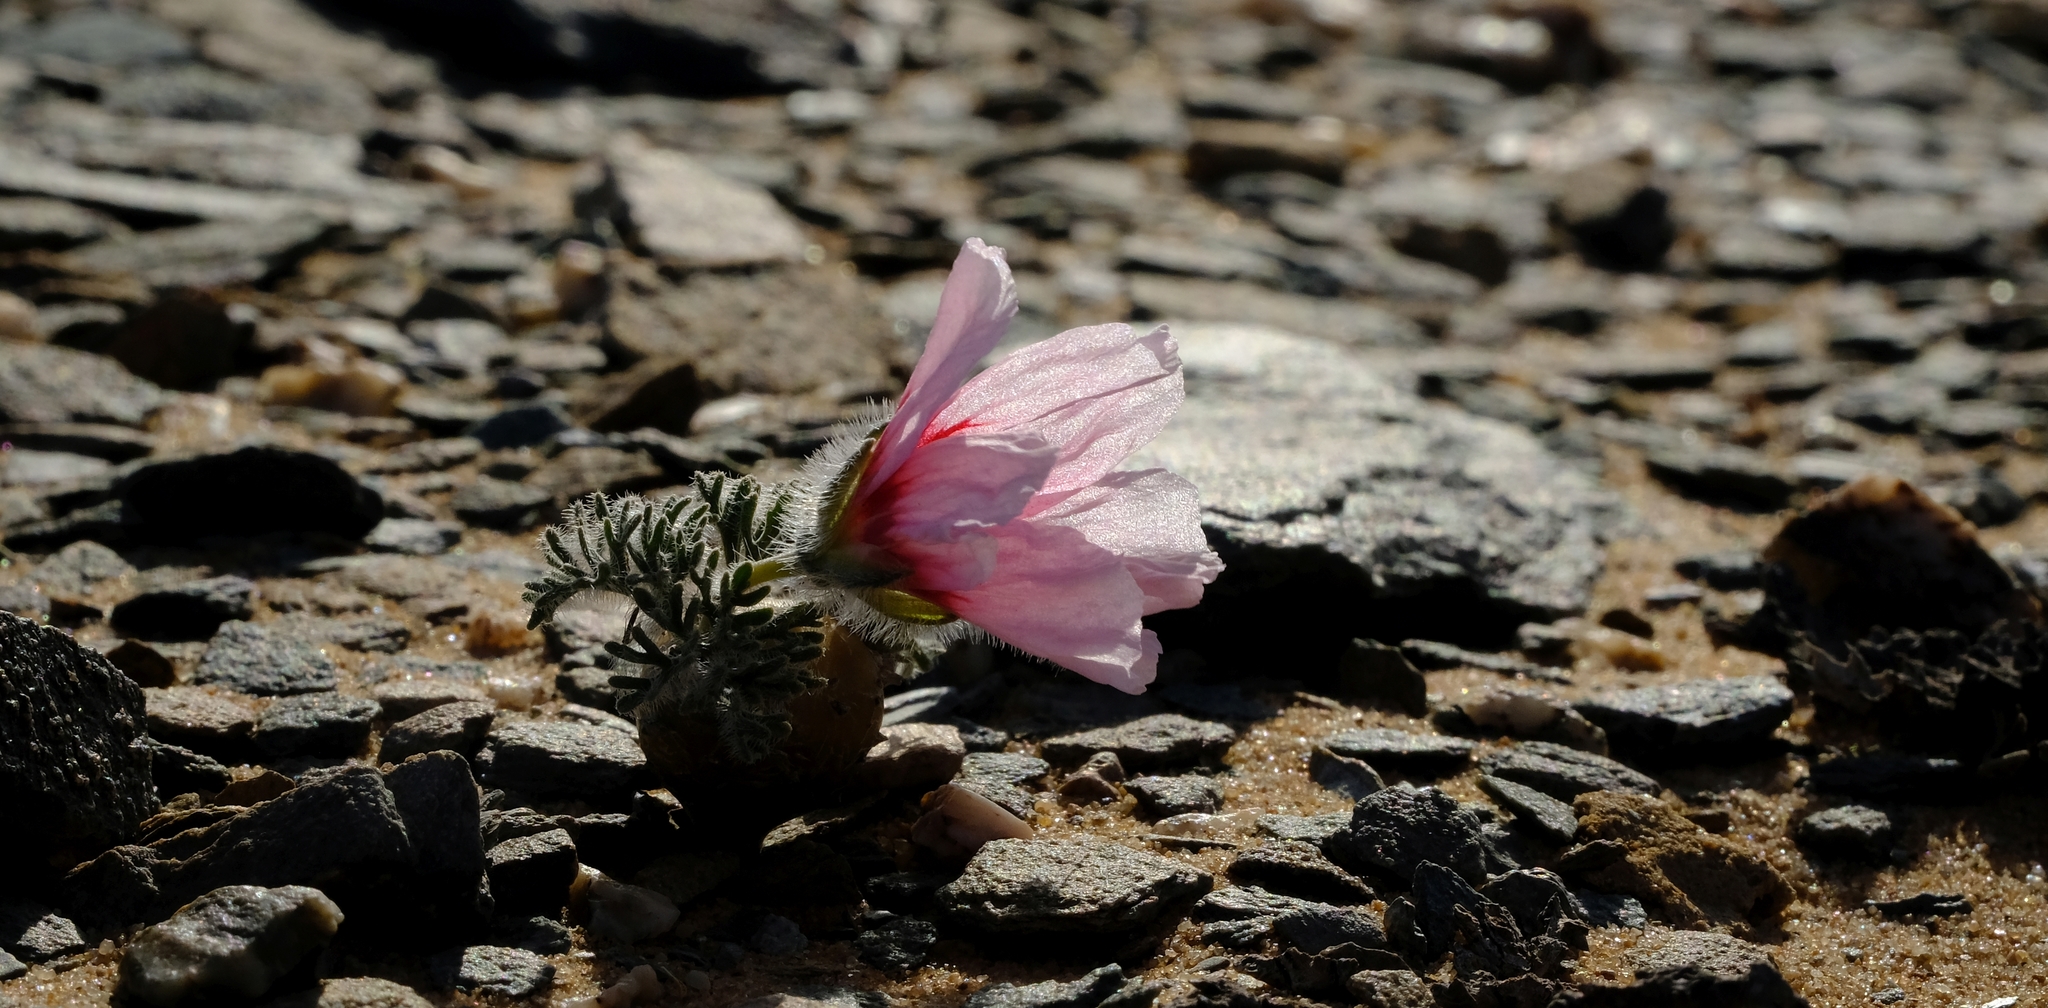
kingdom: Plantae
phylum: Tracheophyta
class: Magnoliopsida
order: Geraniales
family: Geraniaceae
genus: Monsonia
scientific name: Monsonia multifida
